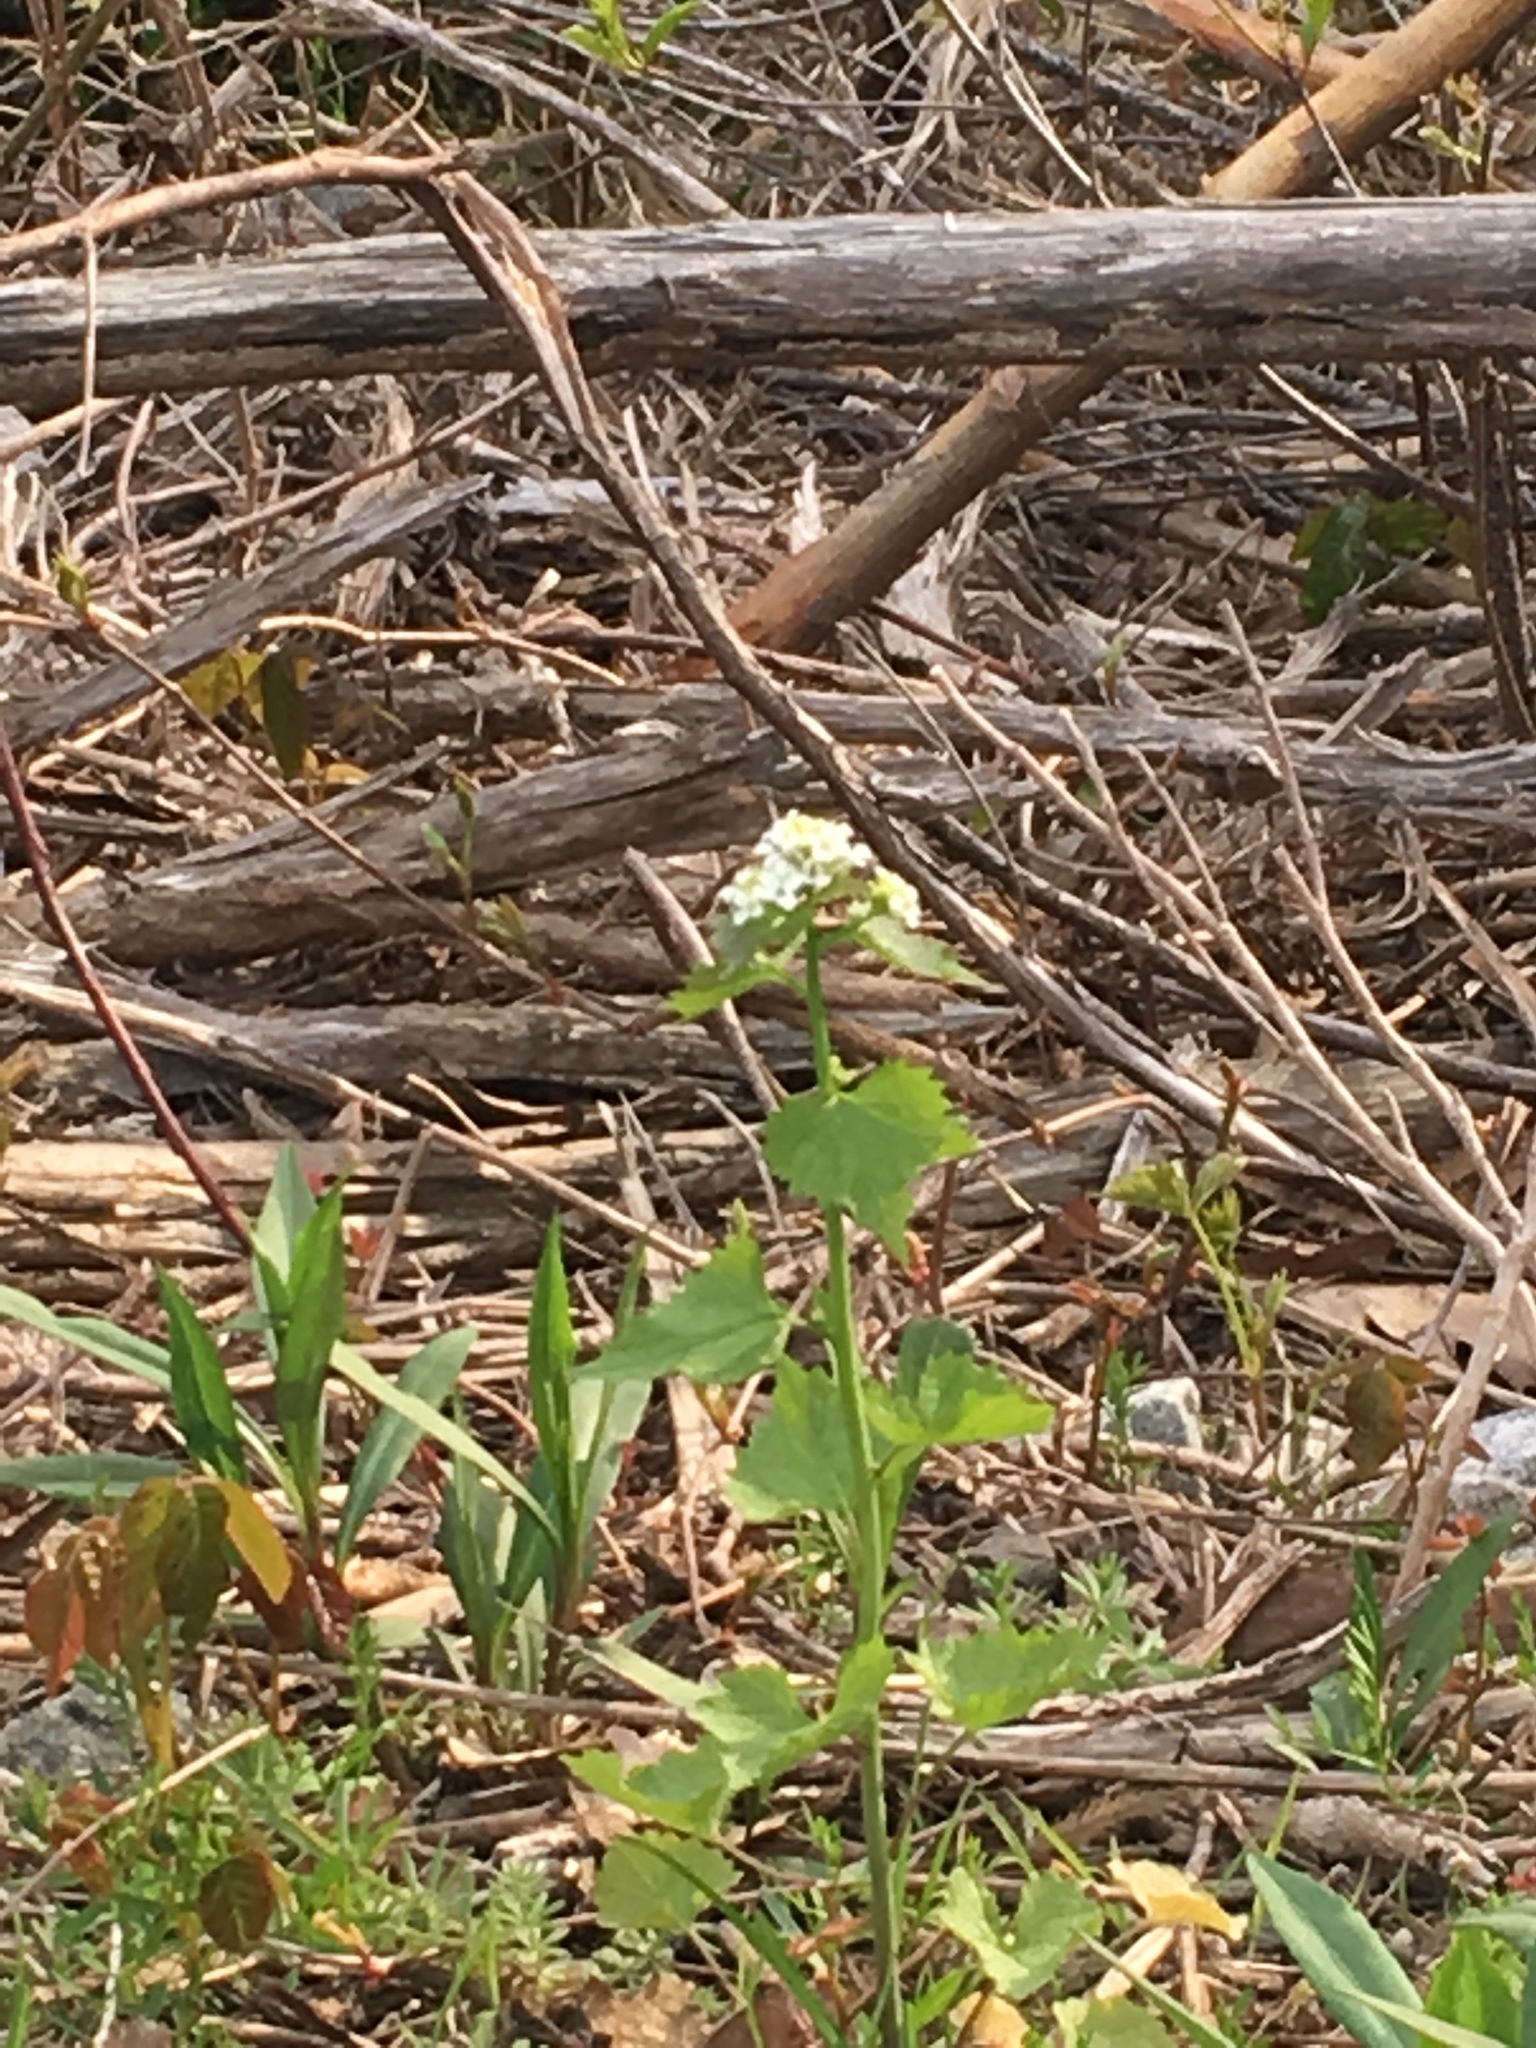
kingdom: Plantae
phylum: Tracheophyta
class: Magnoliopsida
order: Brassicales
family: Brassicaceae
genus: Alliaria
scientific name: Alliaria petiolata
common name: Garlic mustard
